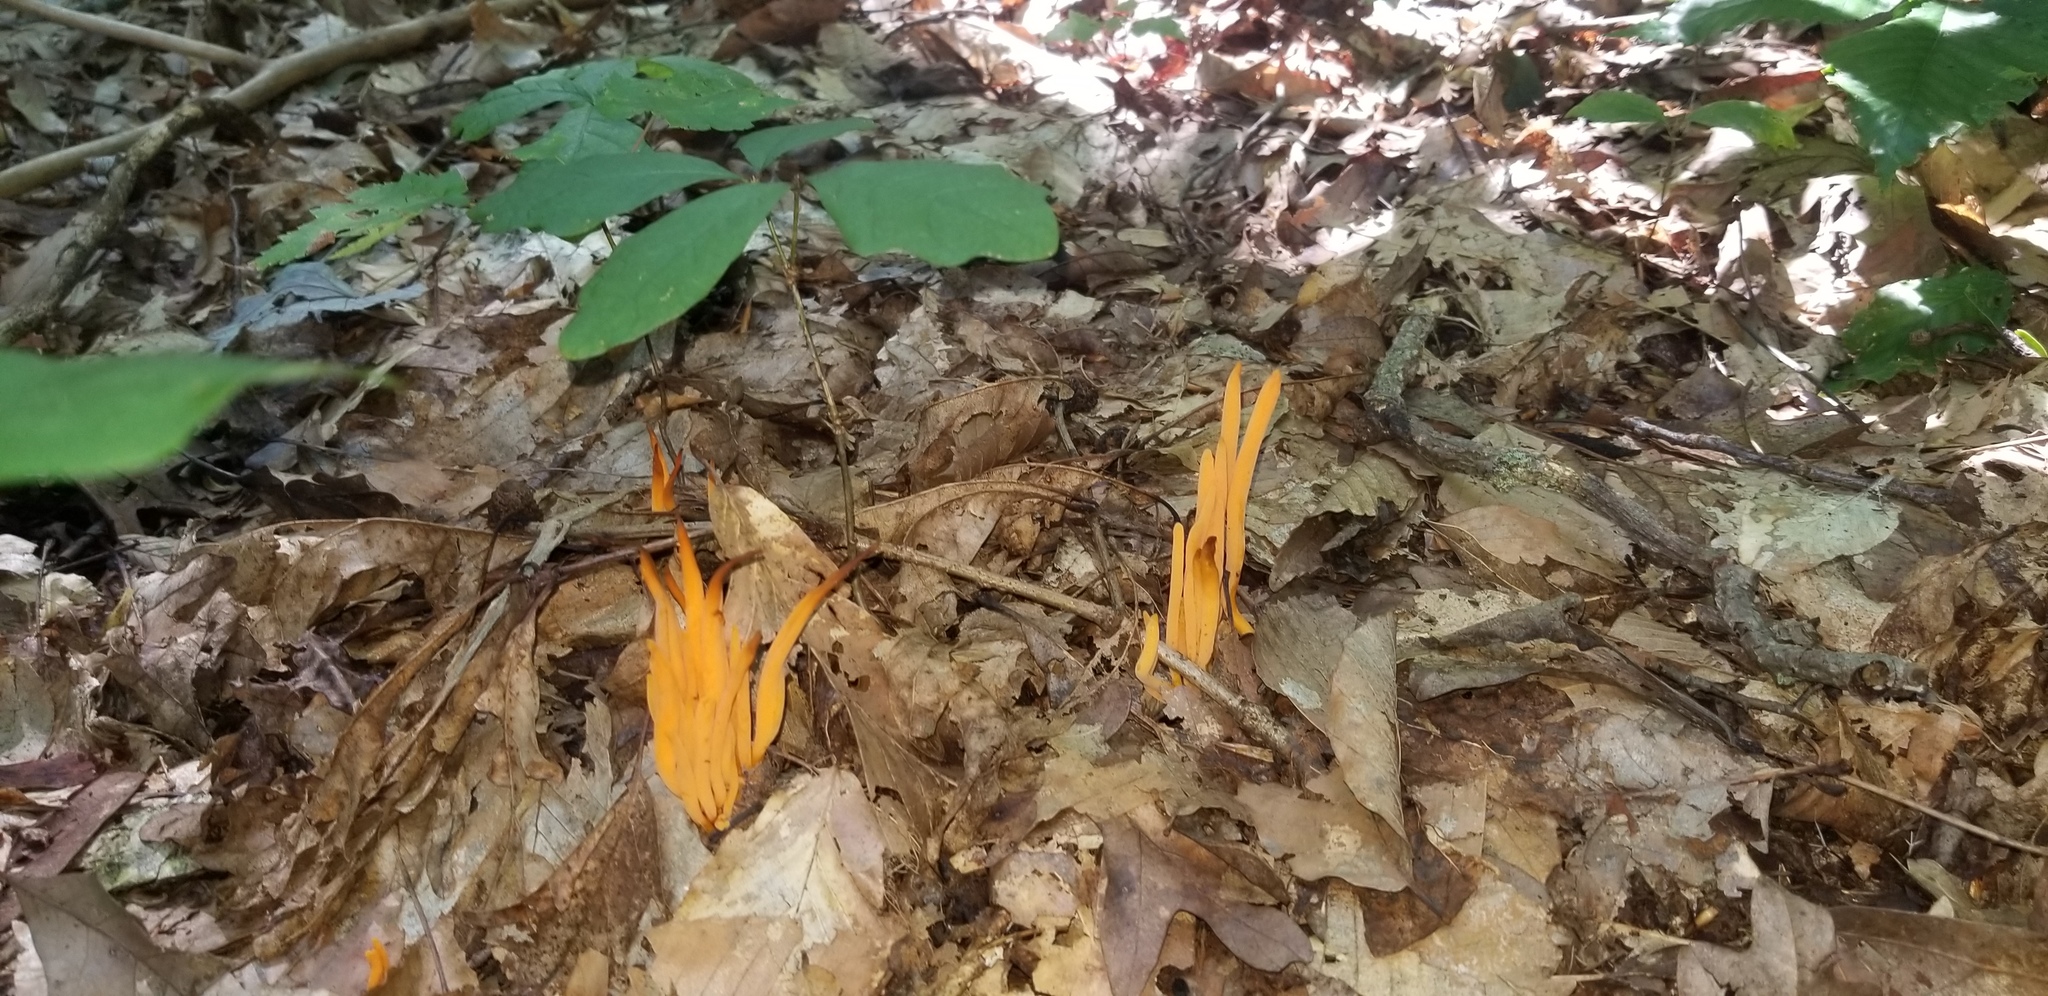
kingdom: Fungi
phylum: Basidiomycota
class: Agaricomycetes
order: Agaricales
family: Clavariaceae
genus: Clavulinopsis
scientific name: Clavulinopsis aurantiocinnabarina
